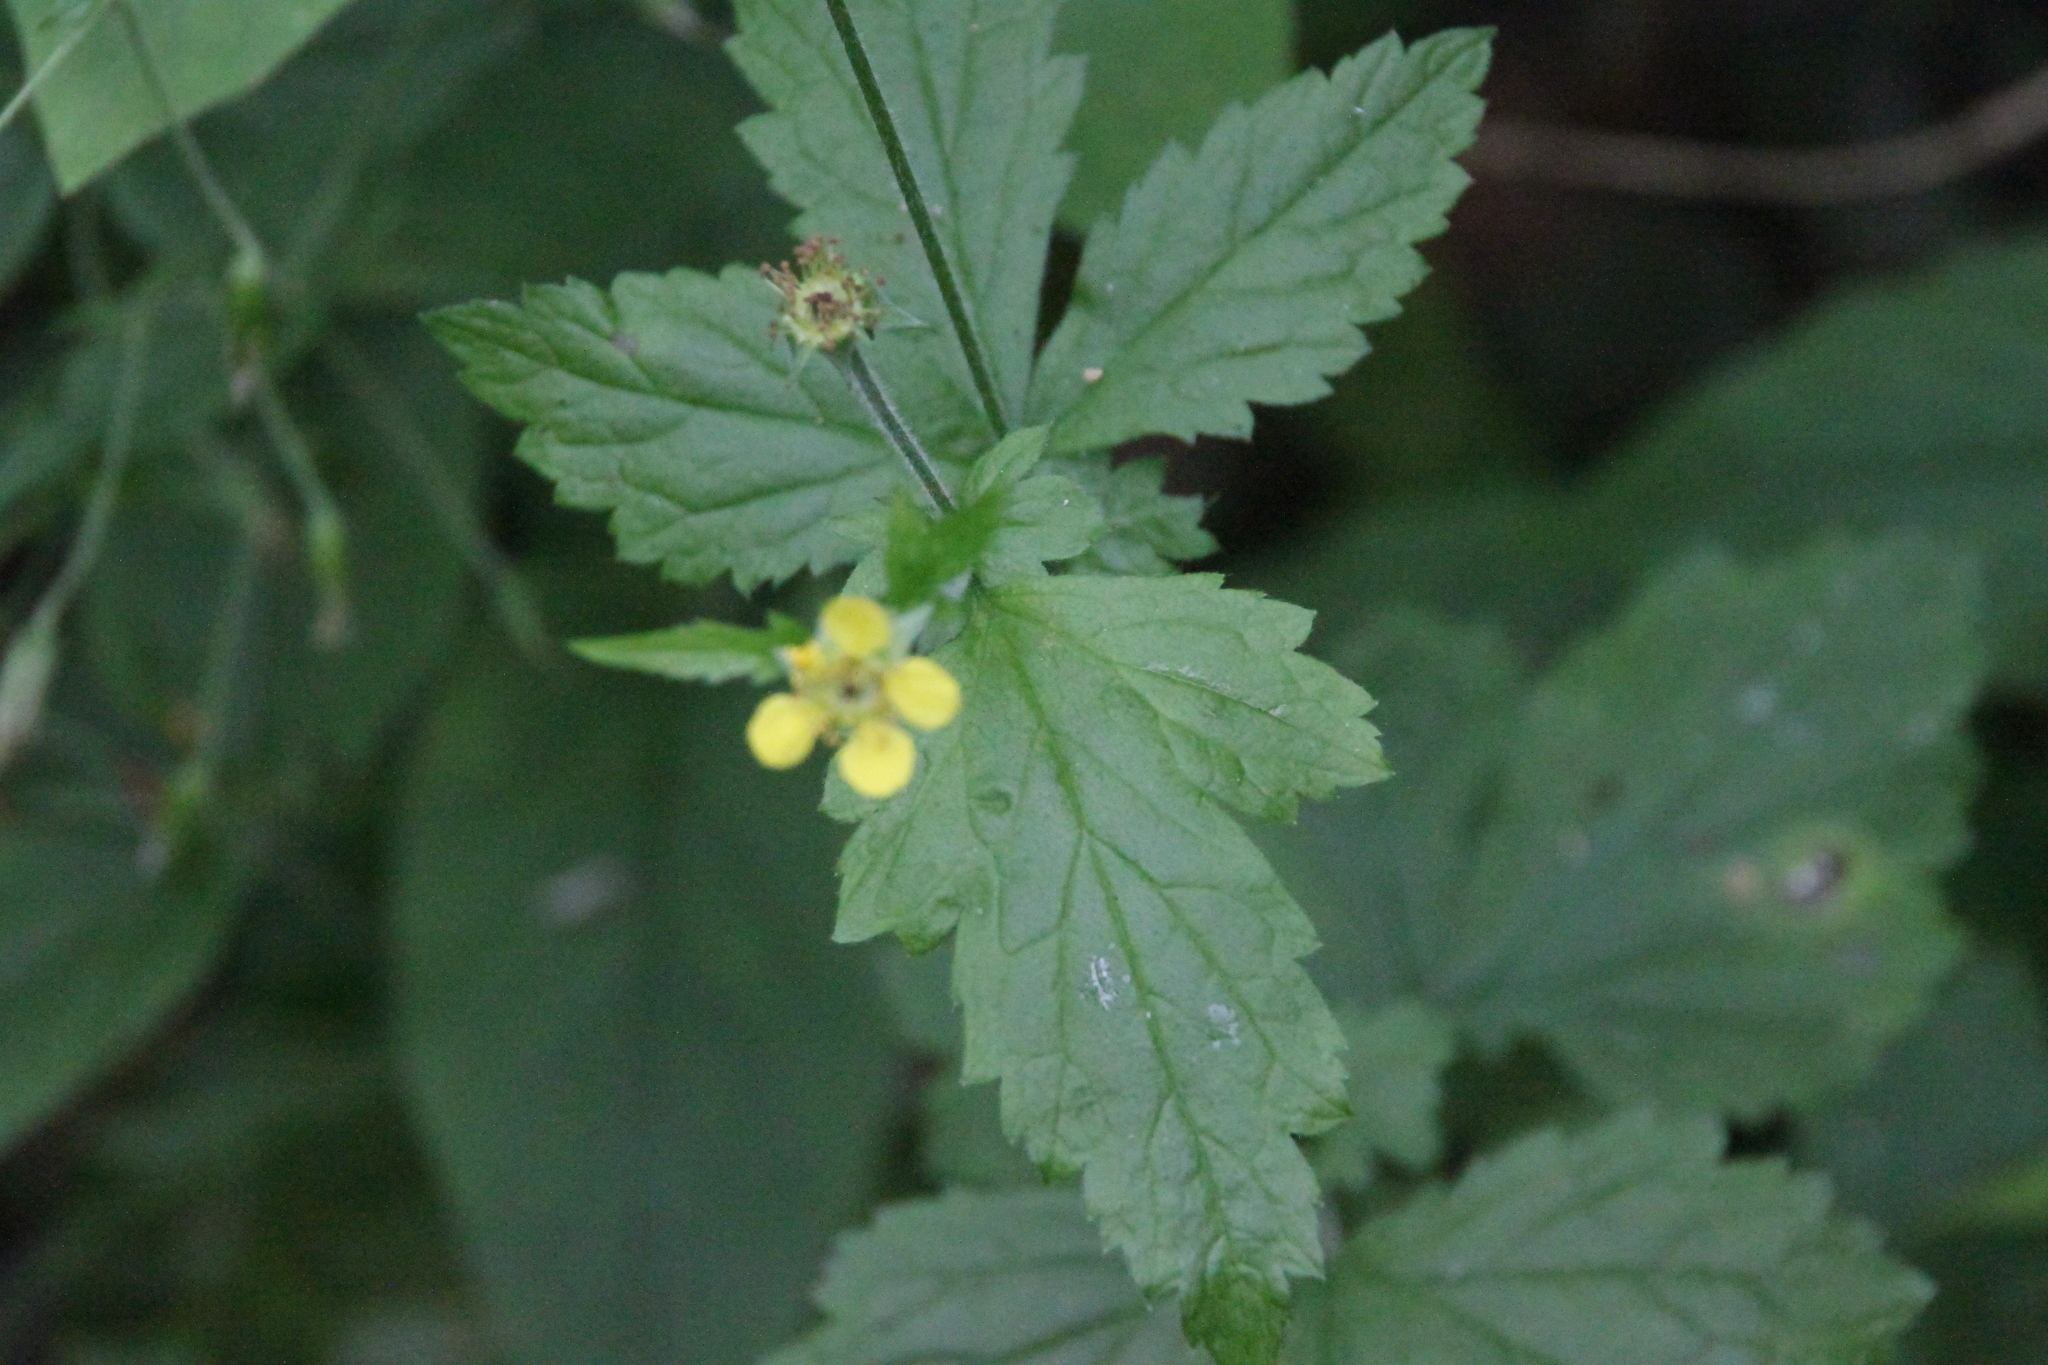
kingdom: Plantae
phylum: Tracheophyta
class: Magnoliopsida
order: Rosales
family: Rosaceae
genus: Geum
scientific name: Geum urbanum
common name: Wood avens
